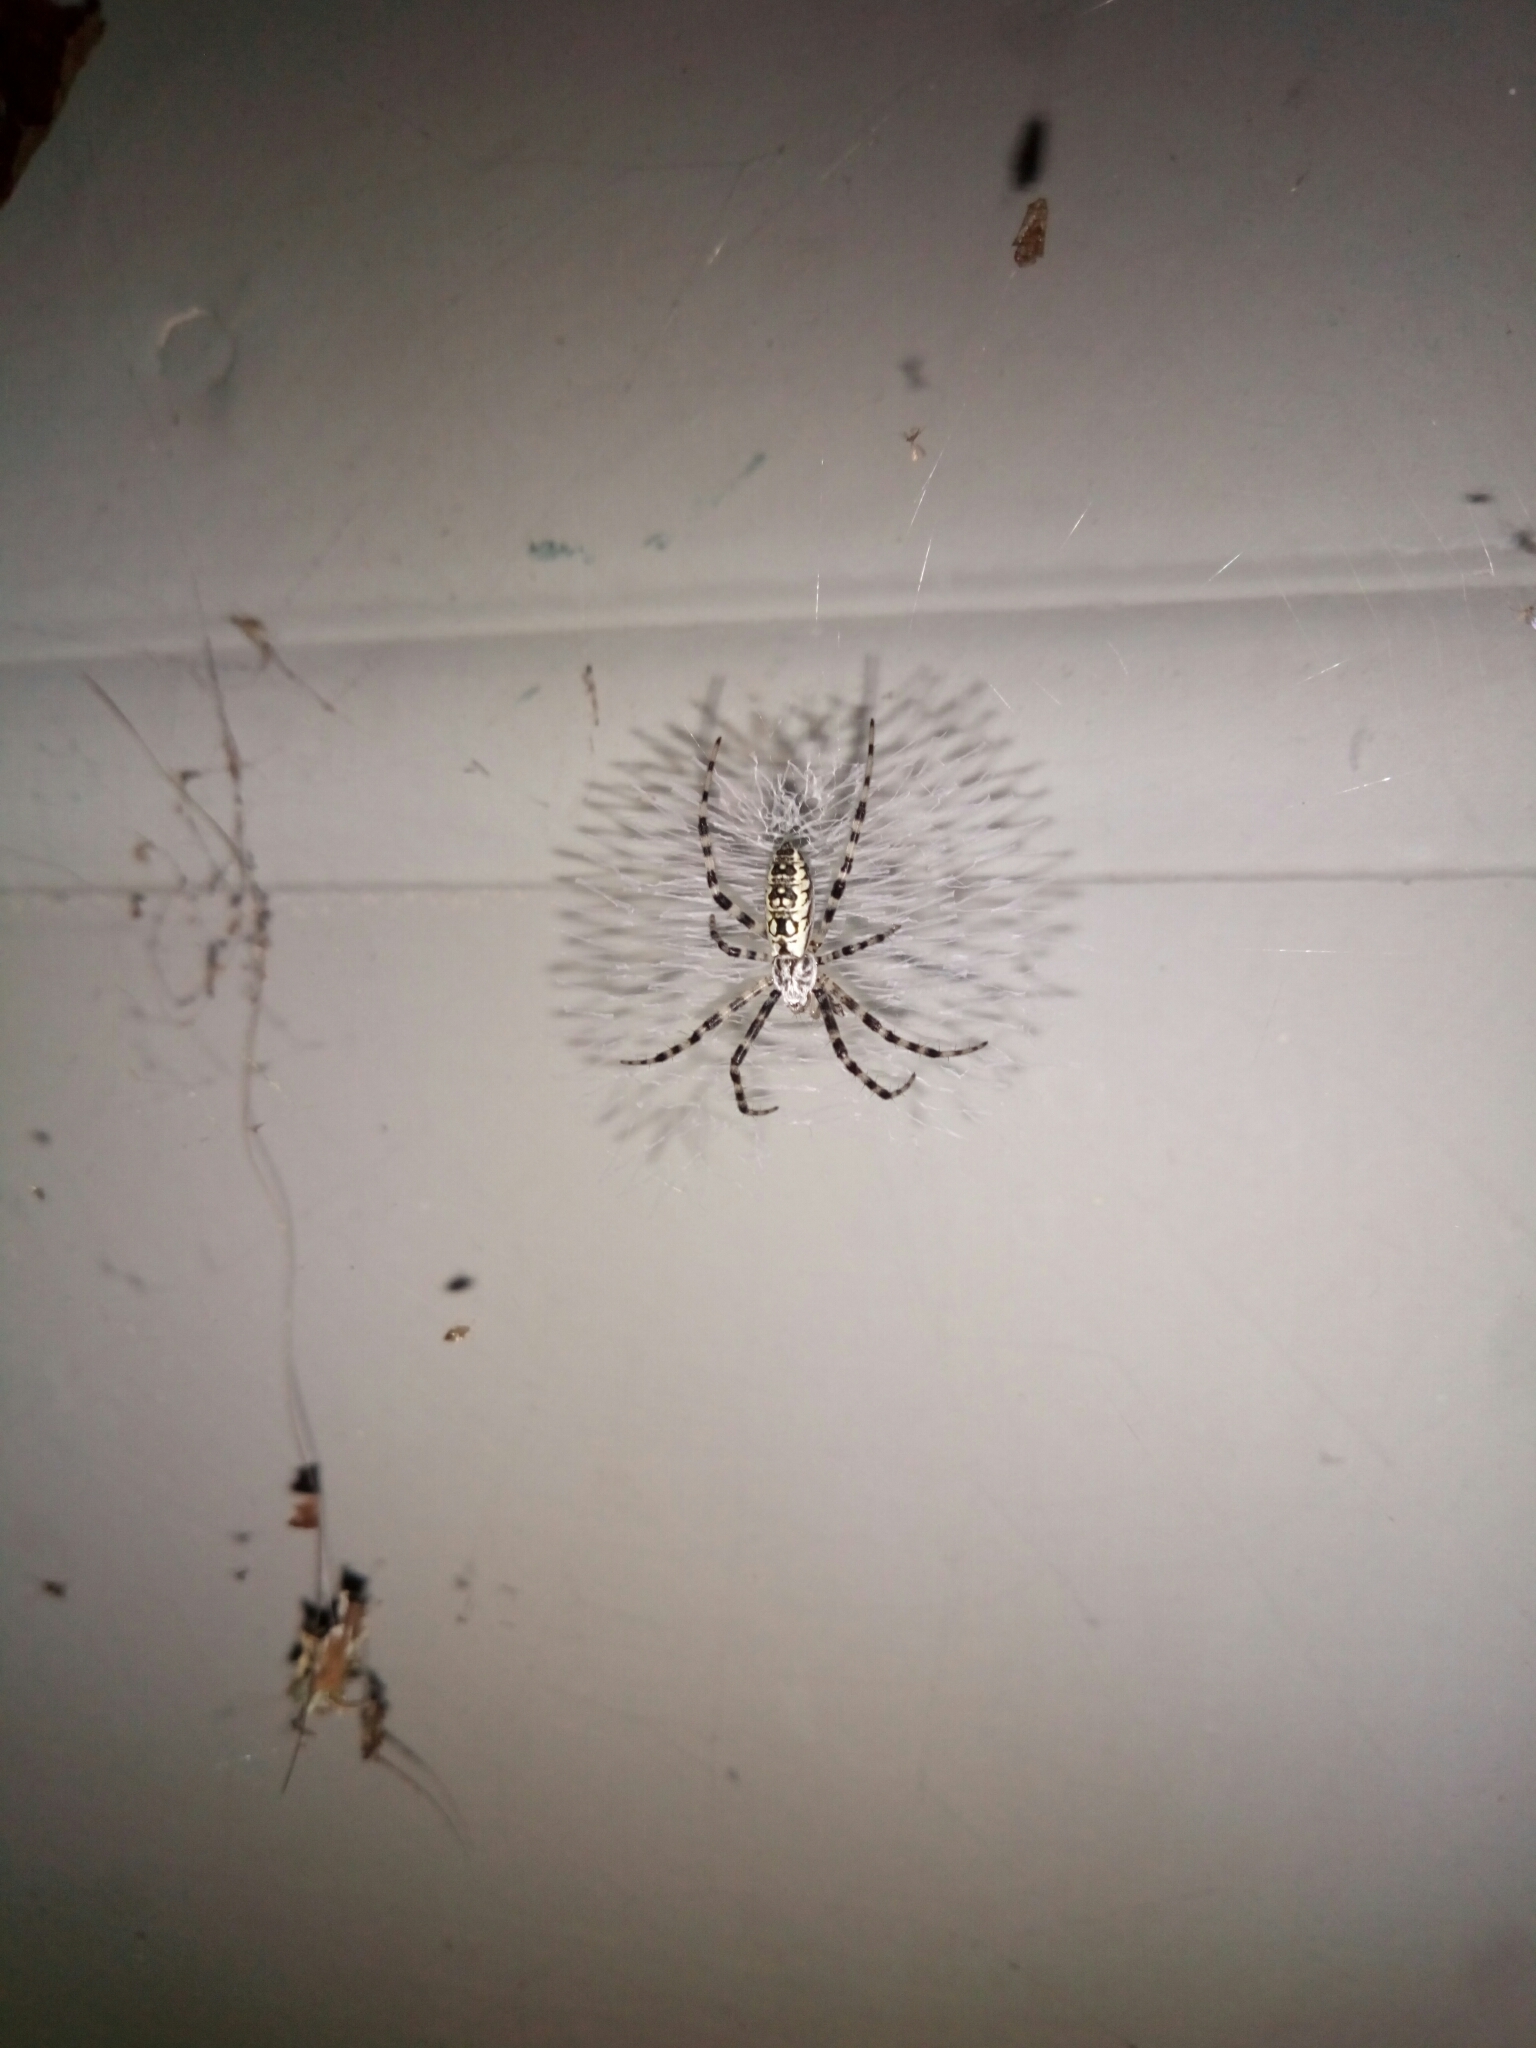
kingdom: Animalia
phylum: Arthropoda
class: Arachnida
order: Araneae
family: Araneidae
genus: Argiope
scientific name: Argiope aurantia
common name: Orb weavers
